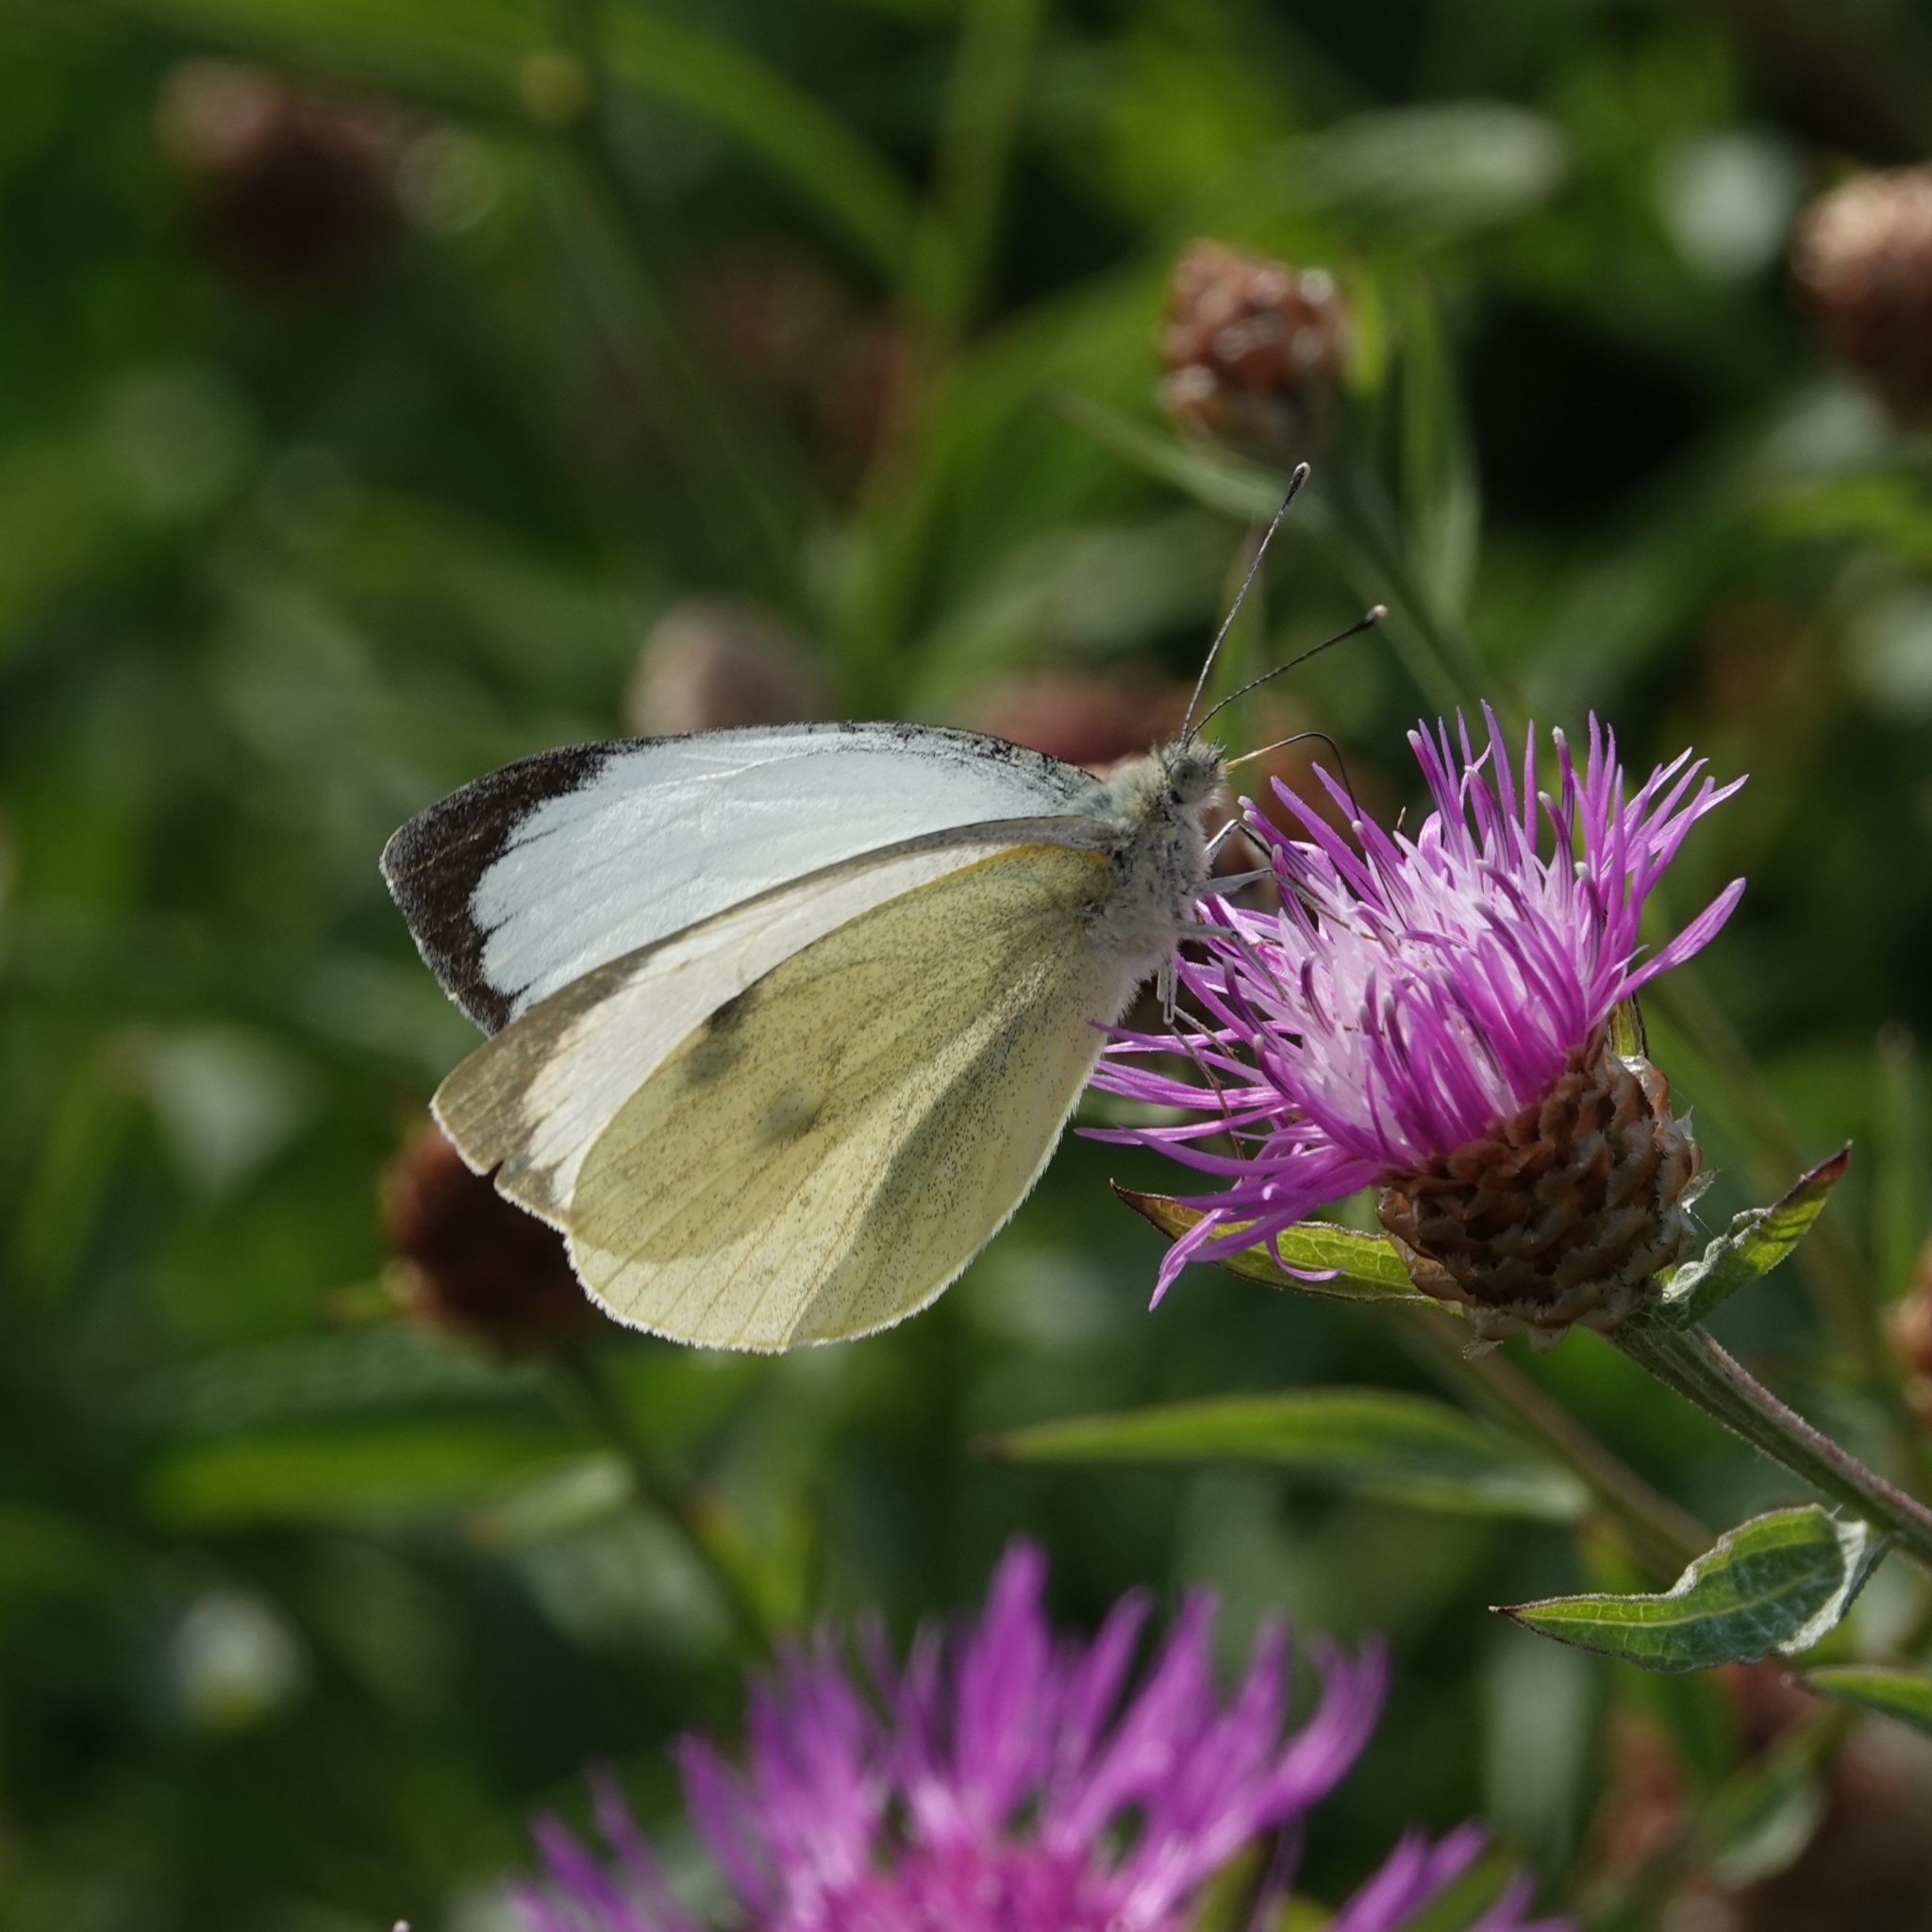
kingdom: Animalia
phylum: Arthropoda
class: Insecta
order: Lepidoptera
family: Pieridae
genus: Pieris
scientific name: Pieris brassicae
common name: Large white
